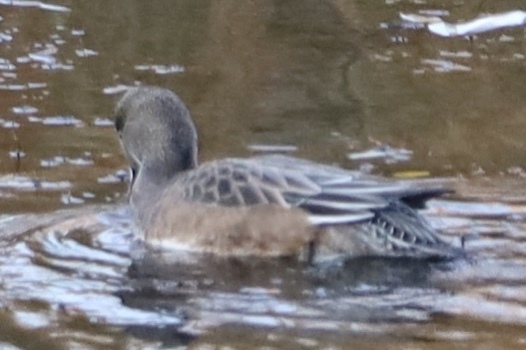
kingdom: Animalia
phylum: Chordata
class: Aves
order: Anseriformes
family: Anatidae
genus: Mareca
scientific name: Mareca americana
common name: American wigeon
